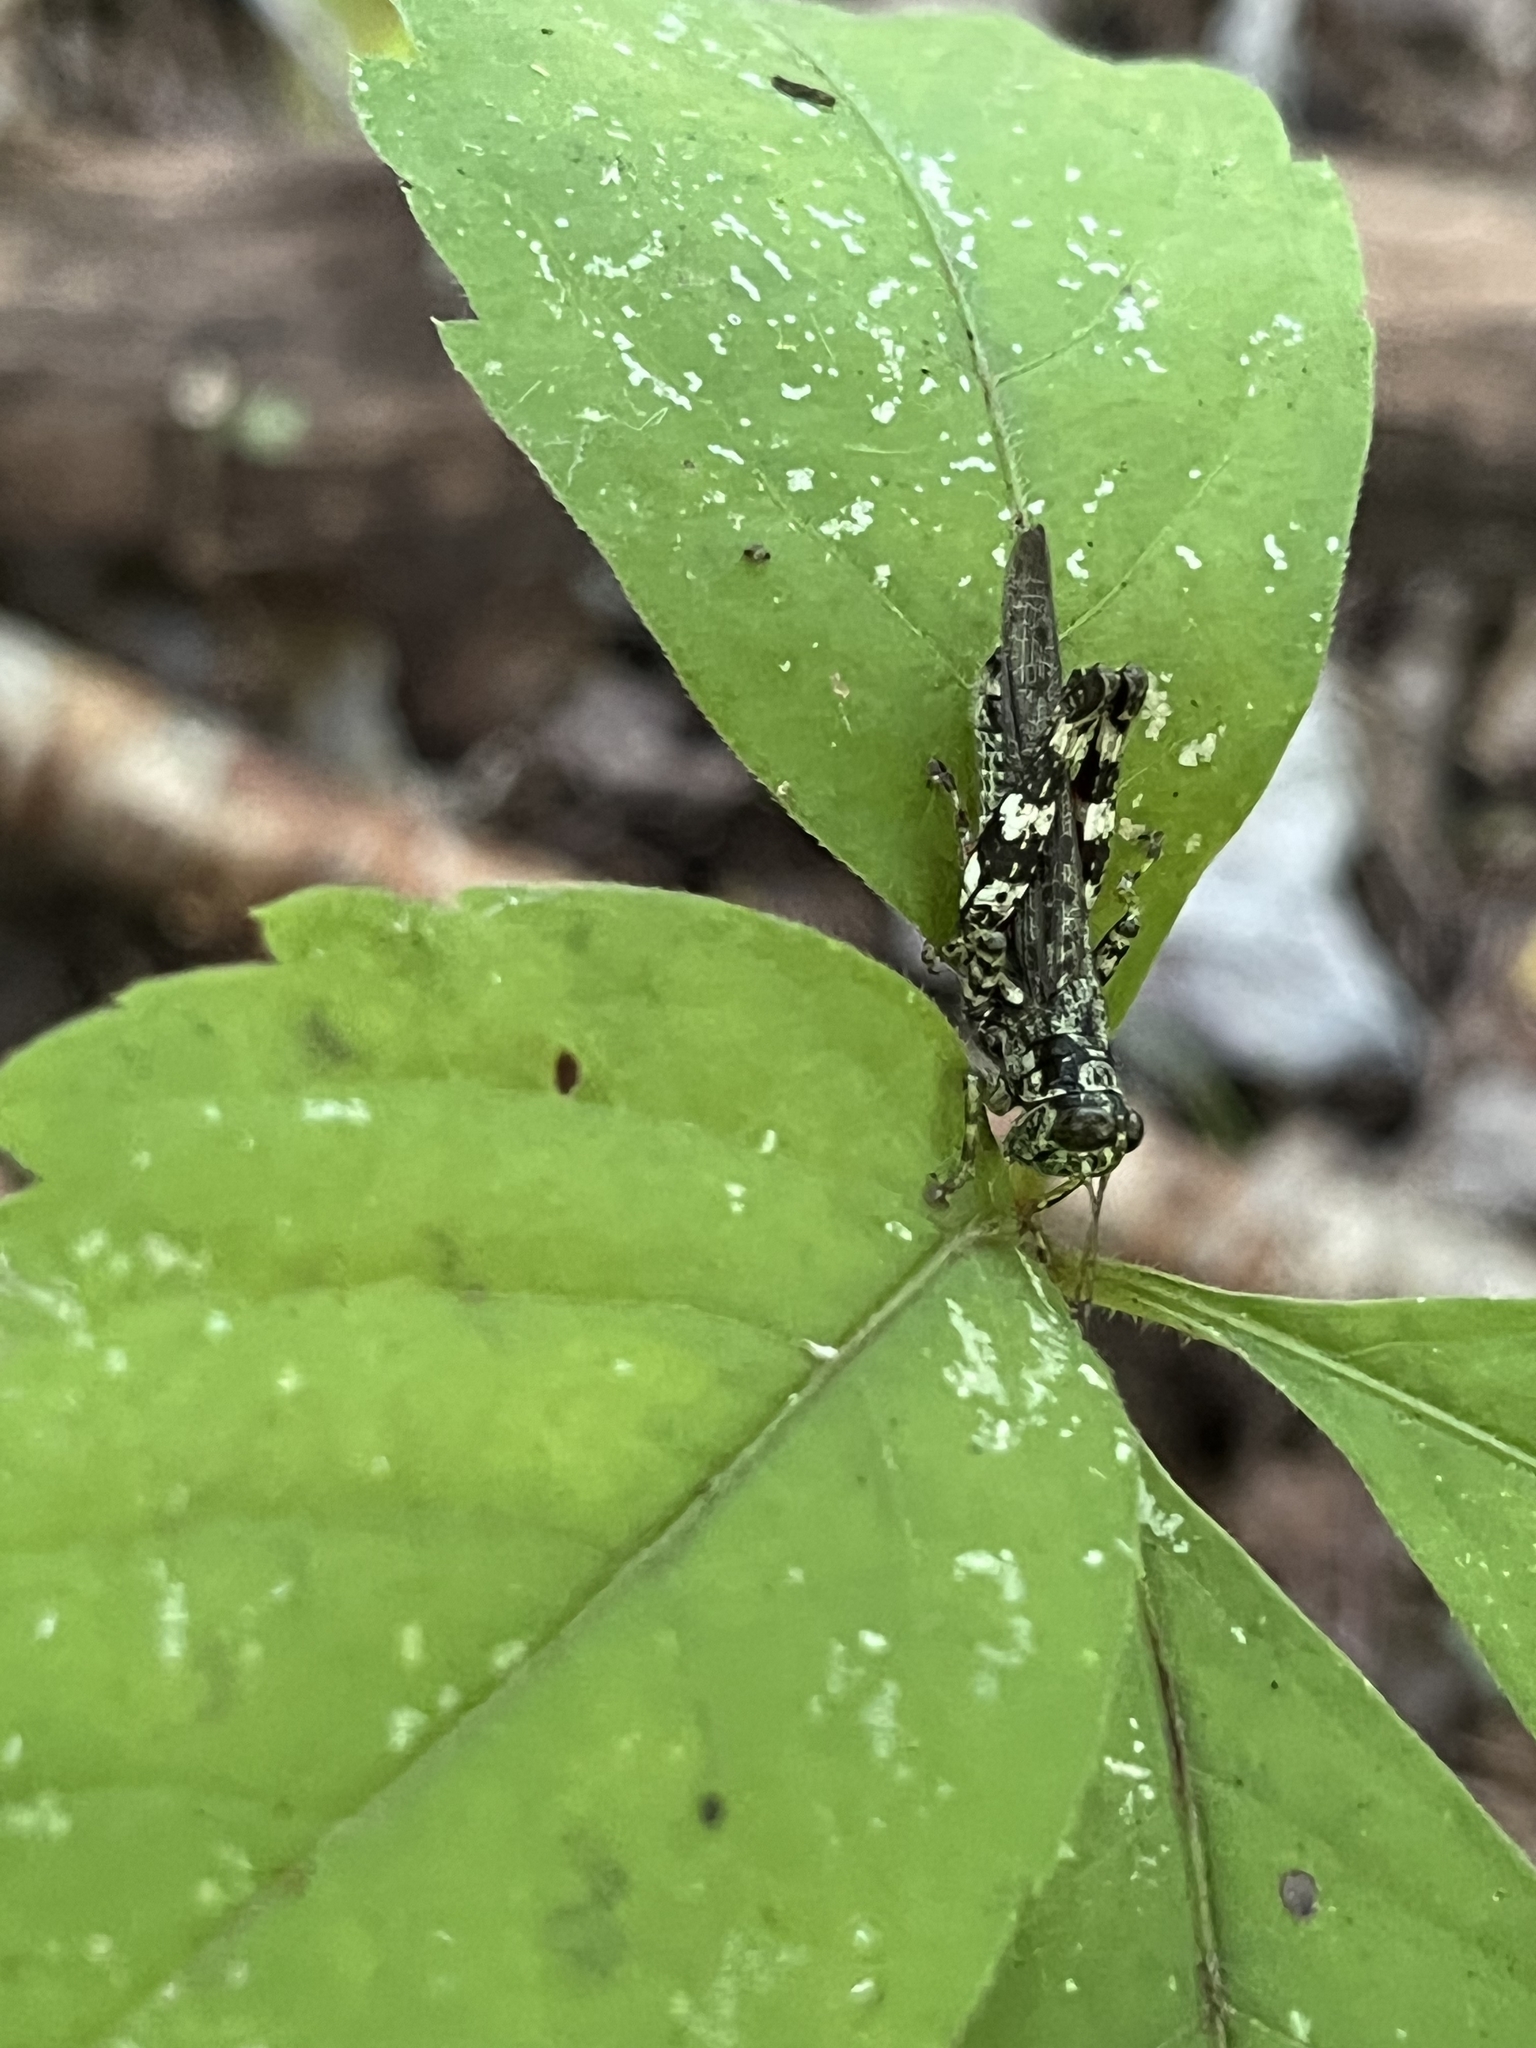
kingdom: Animalia
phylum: Arthropoda
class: Insecta
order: Orthoptera
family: Acrididae
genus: Melanoplus
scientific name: Melanoplus punctulatus
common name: Pine-tree spur-throat grasshopper
